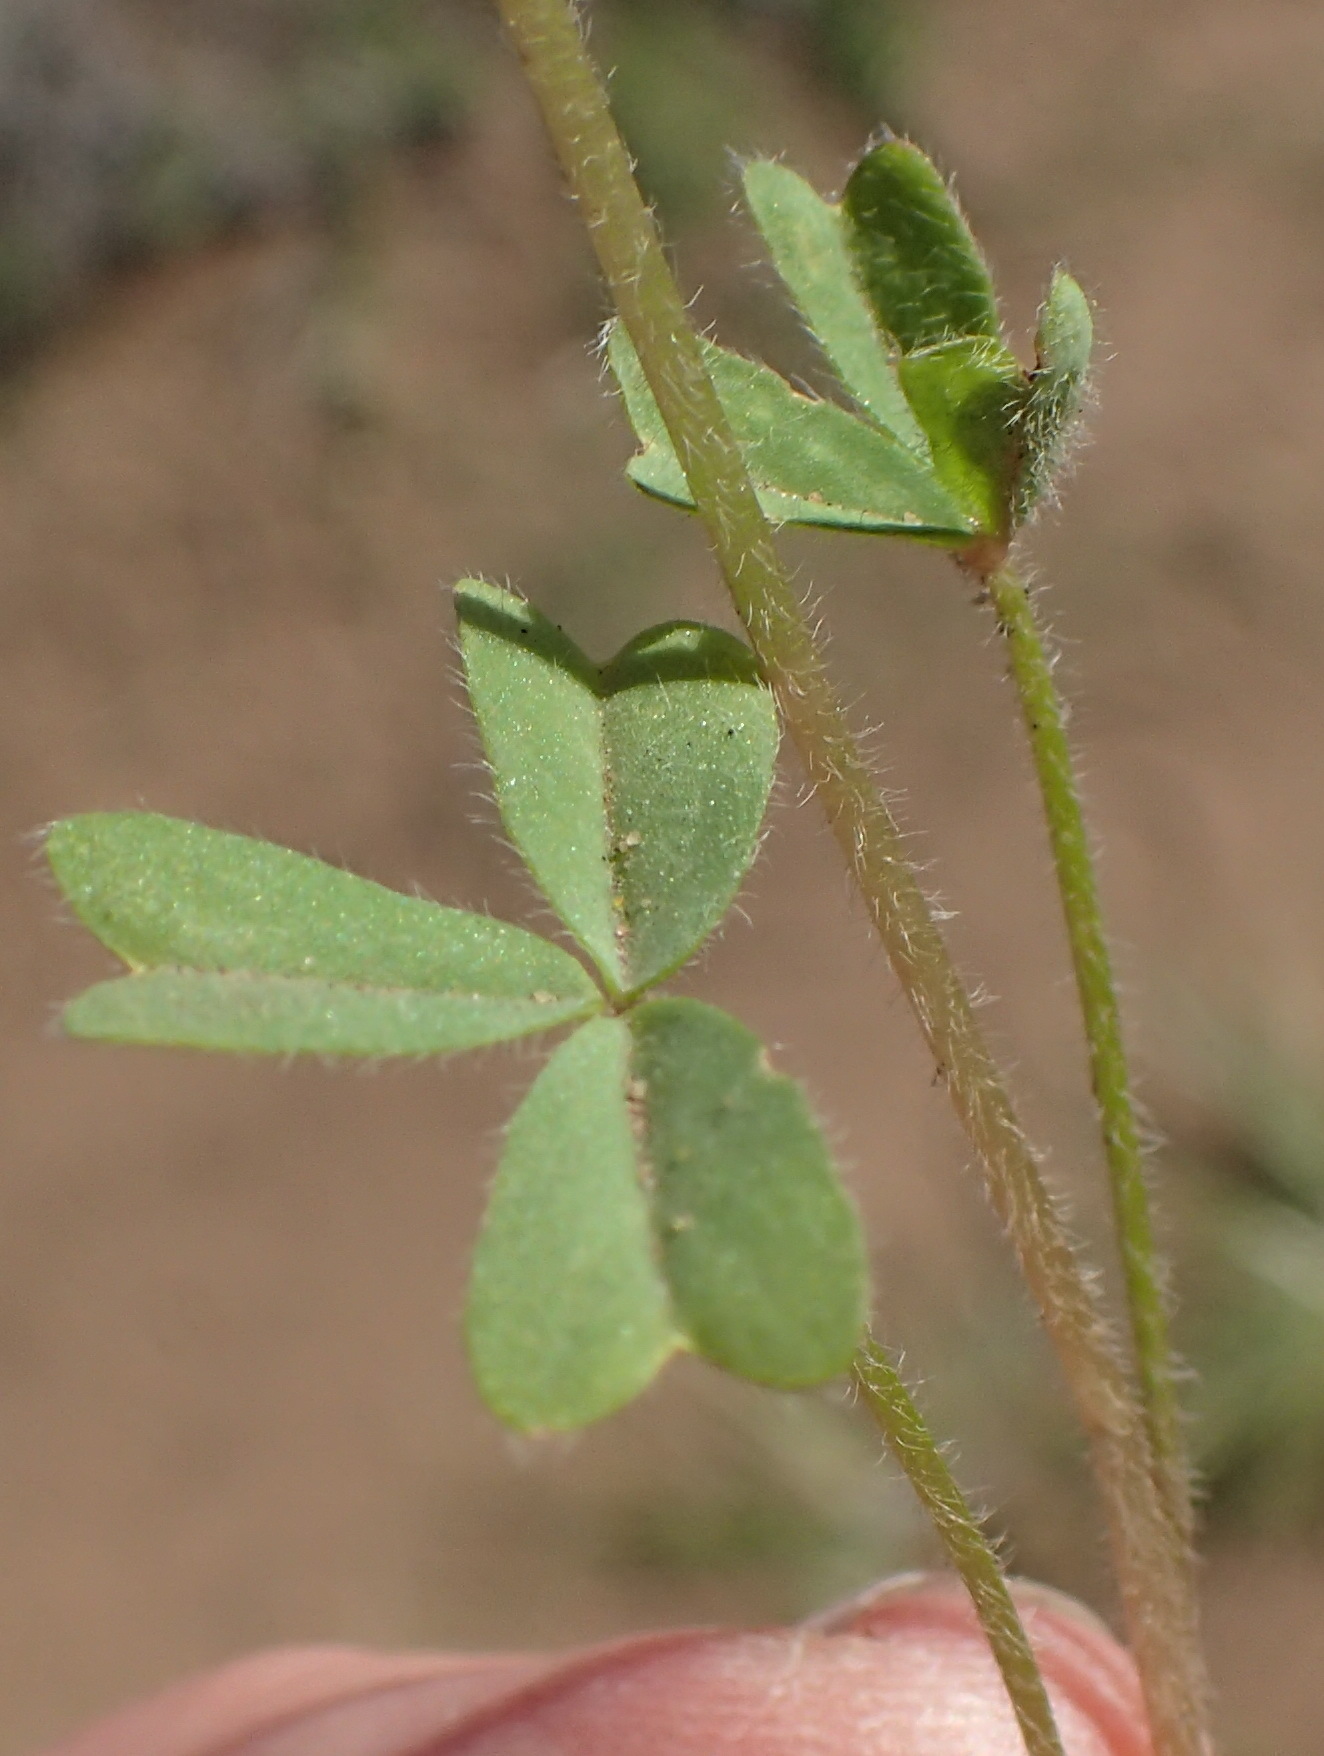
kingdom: Plantae
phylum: Tracheophyta
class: Magnoliopsida
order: Oxalidales
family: Oxalidaceae
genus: Oxalis
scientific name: Oxalis obtusa
